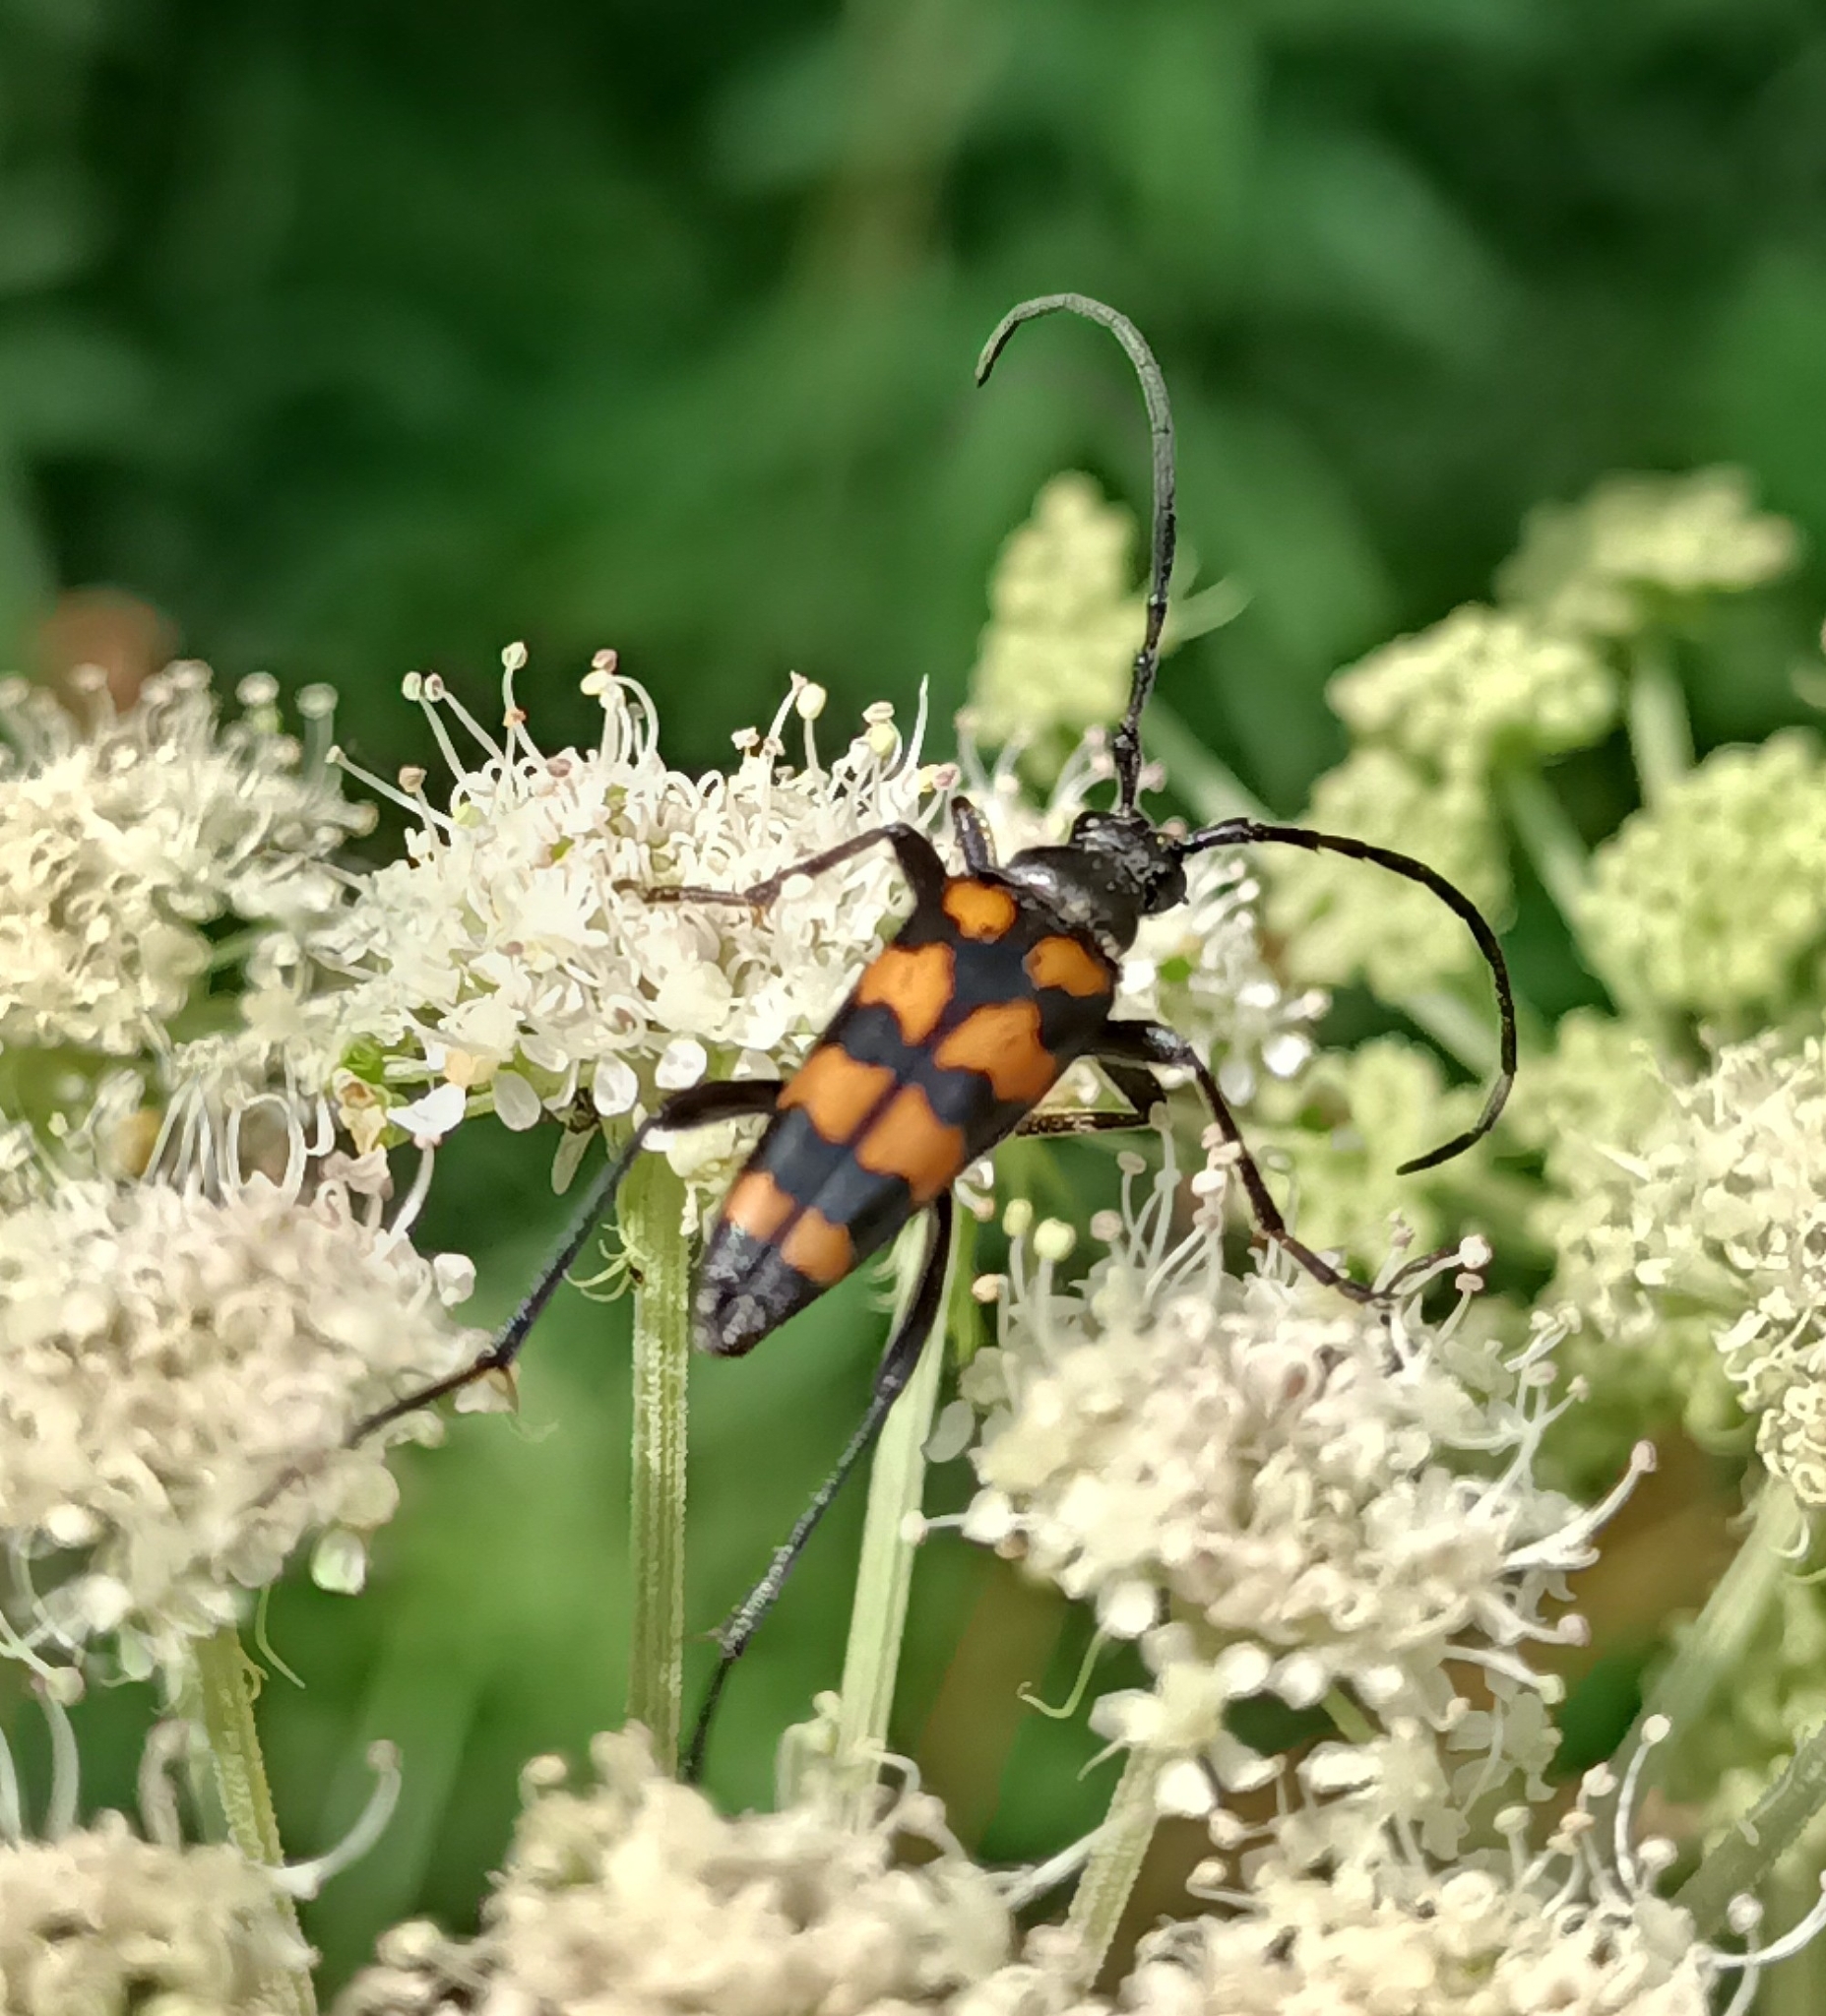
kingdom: Animalia
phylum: Arthropoda
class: Insecta
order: Coleoptera
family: Cerambycidae
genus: Leptura
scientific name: Leptura quadrifasciata
